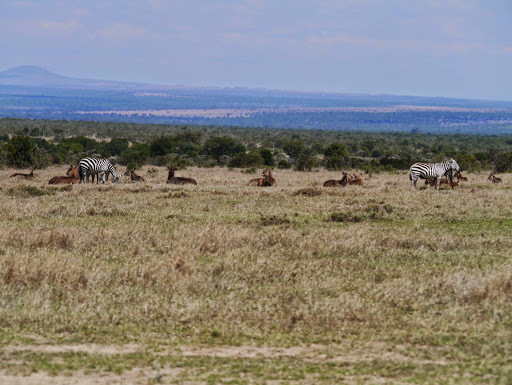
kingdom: Animalia
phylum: Chordata
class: Mammalia
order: Artiodactyla
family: Bovidae
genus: Kobus
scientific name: Kobus ellipsiprymnus
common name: Waterbuck
